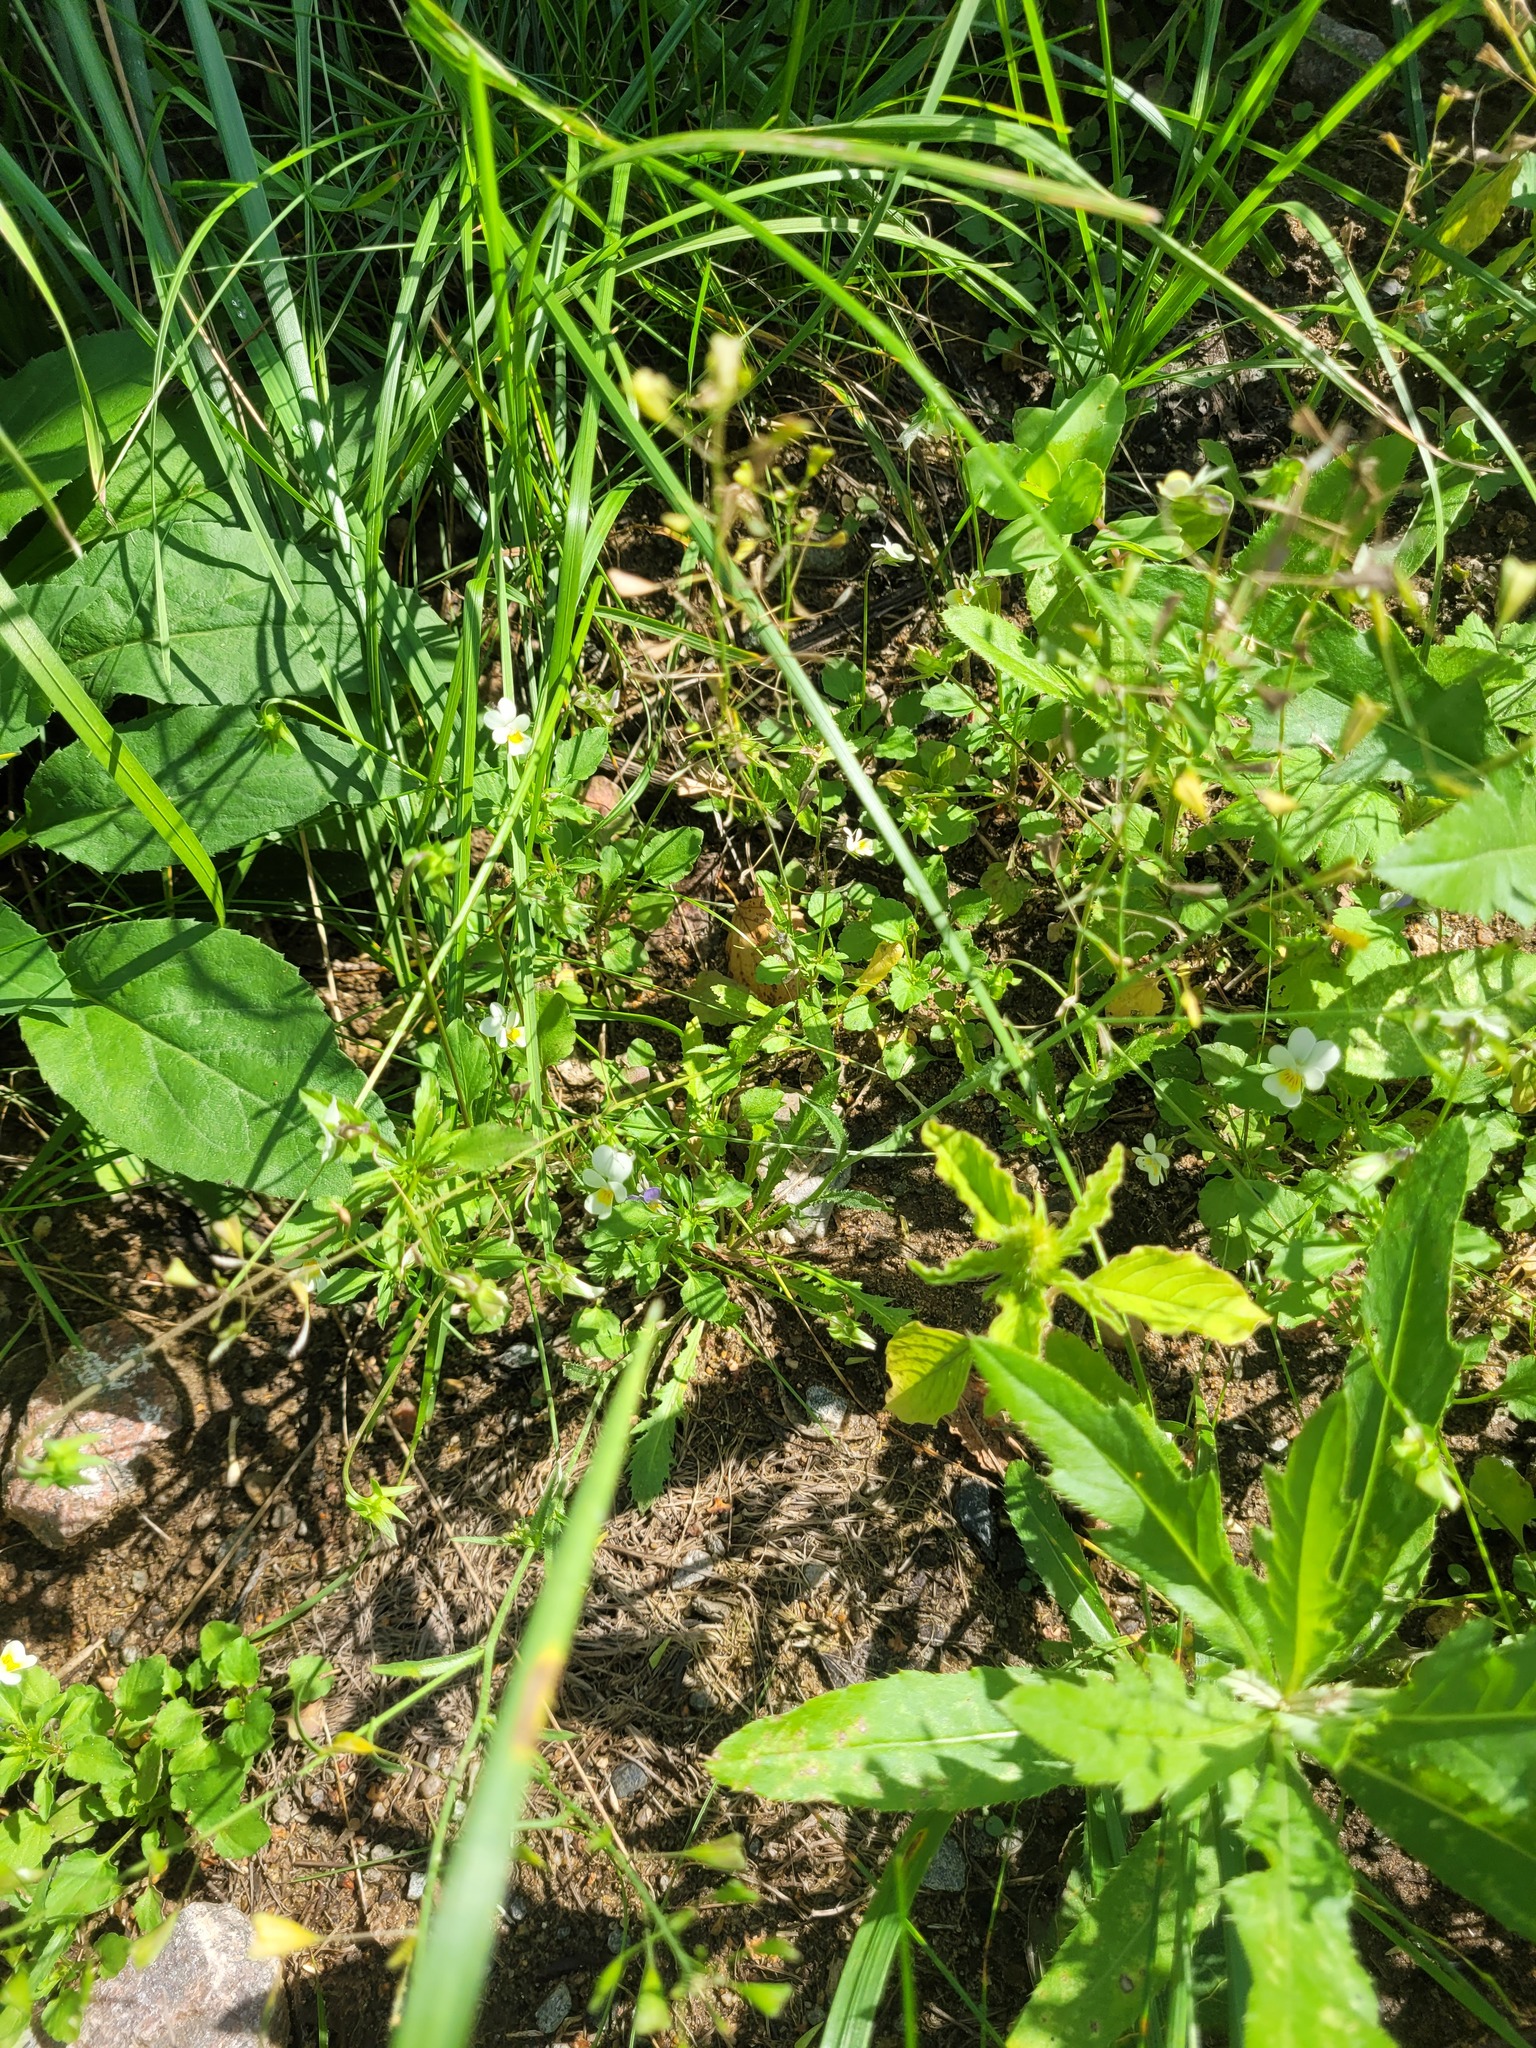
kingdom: Plantae
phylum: Tracheophyta
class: Magnoliopsida
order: Malpighiales
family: Violaceae
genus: Viola
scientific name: Viola contempta
